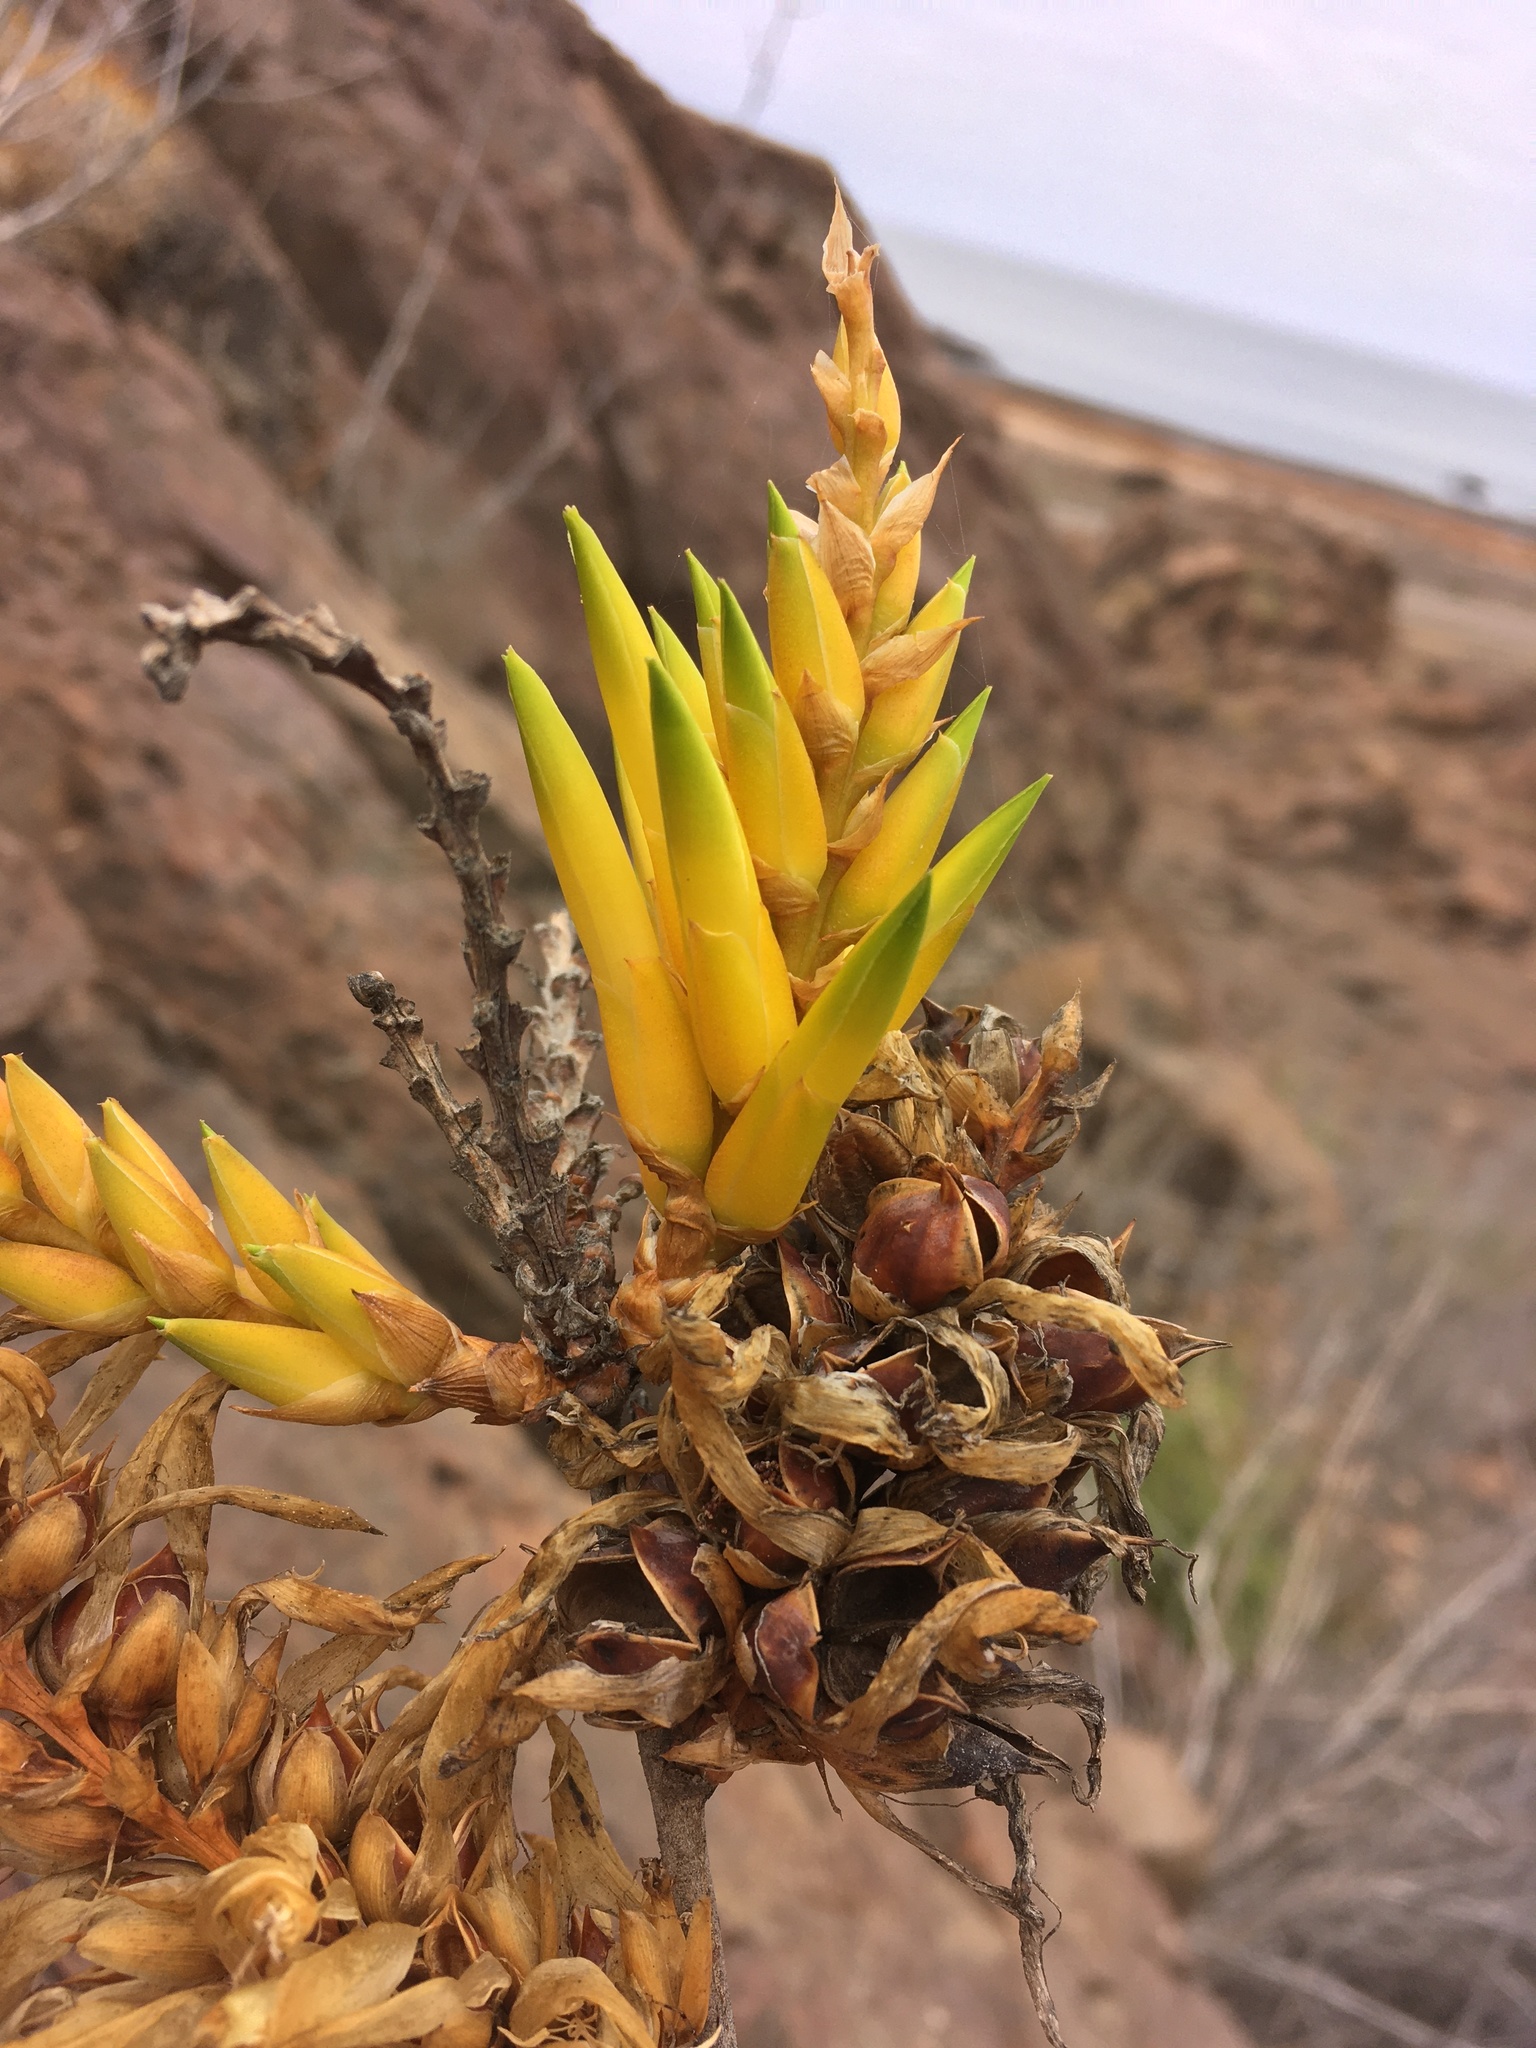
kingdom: Plantae
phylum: Tracheophyta
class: Liliopsida
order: Poales
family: Bromeliaceae
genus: Deuterocohnia
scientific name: Deuterocohnia chrysantha
